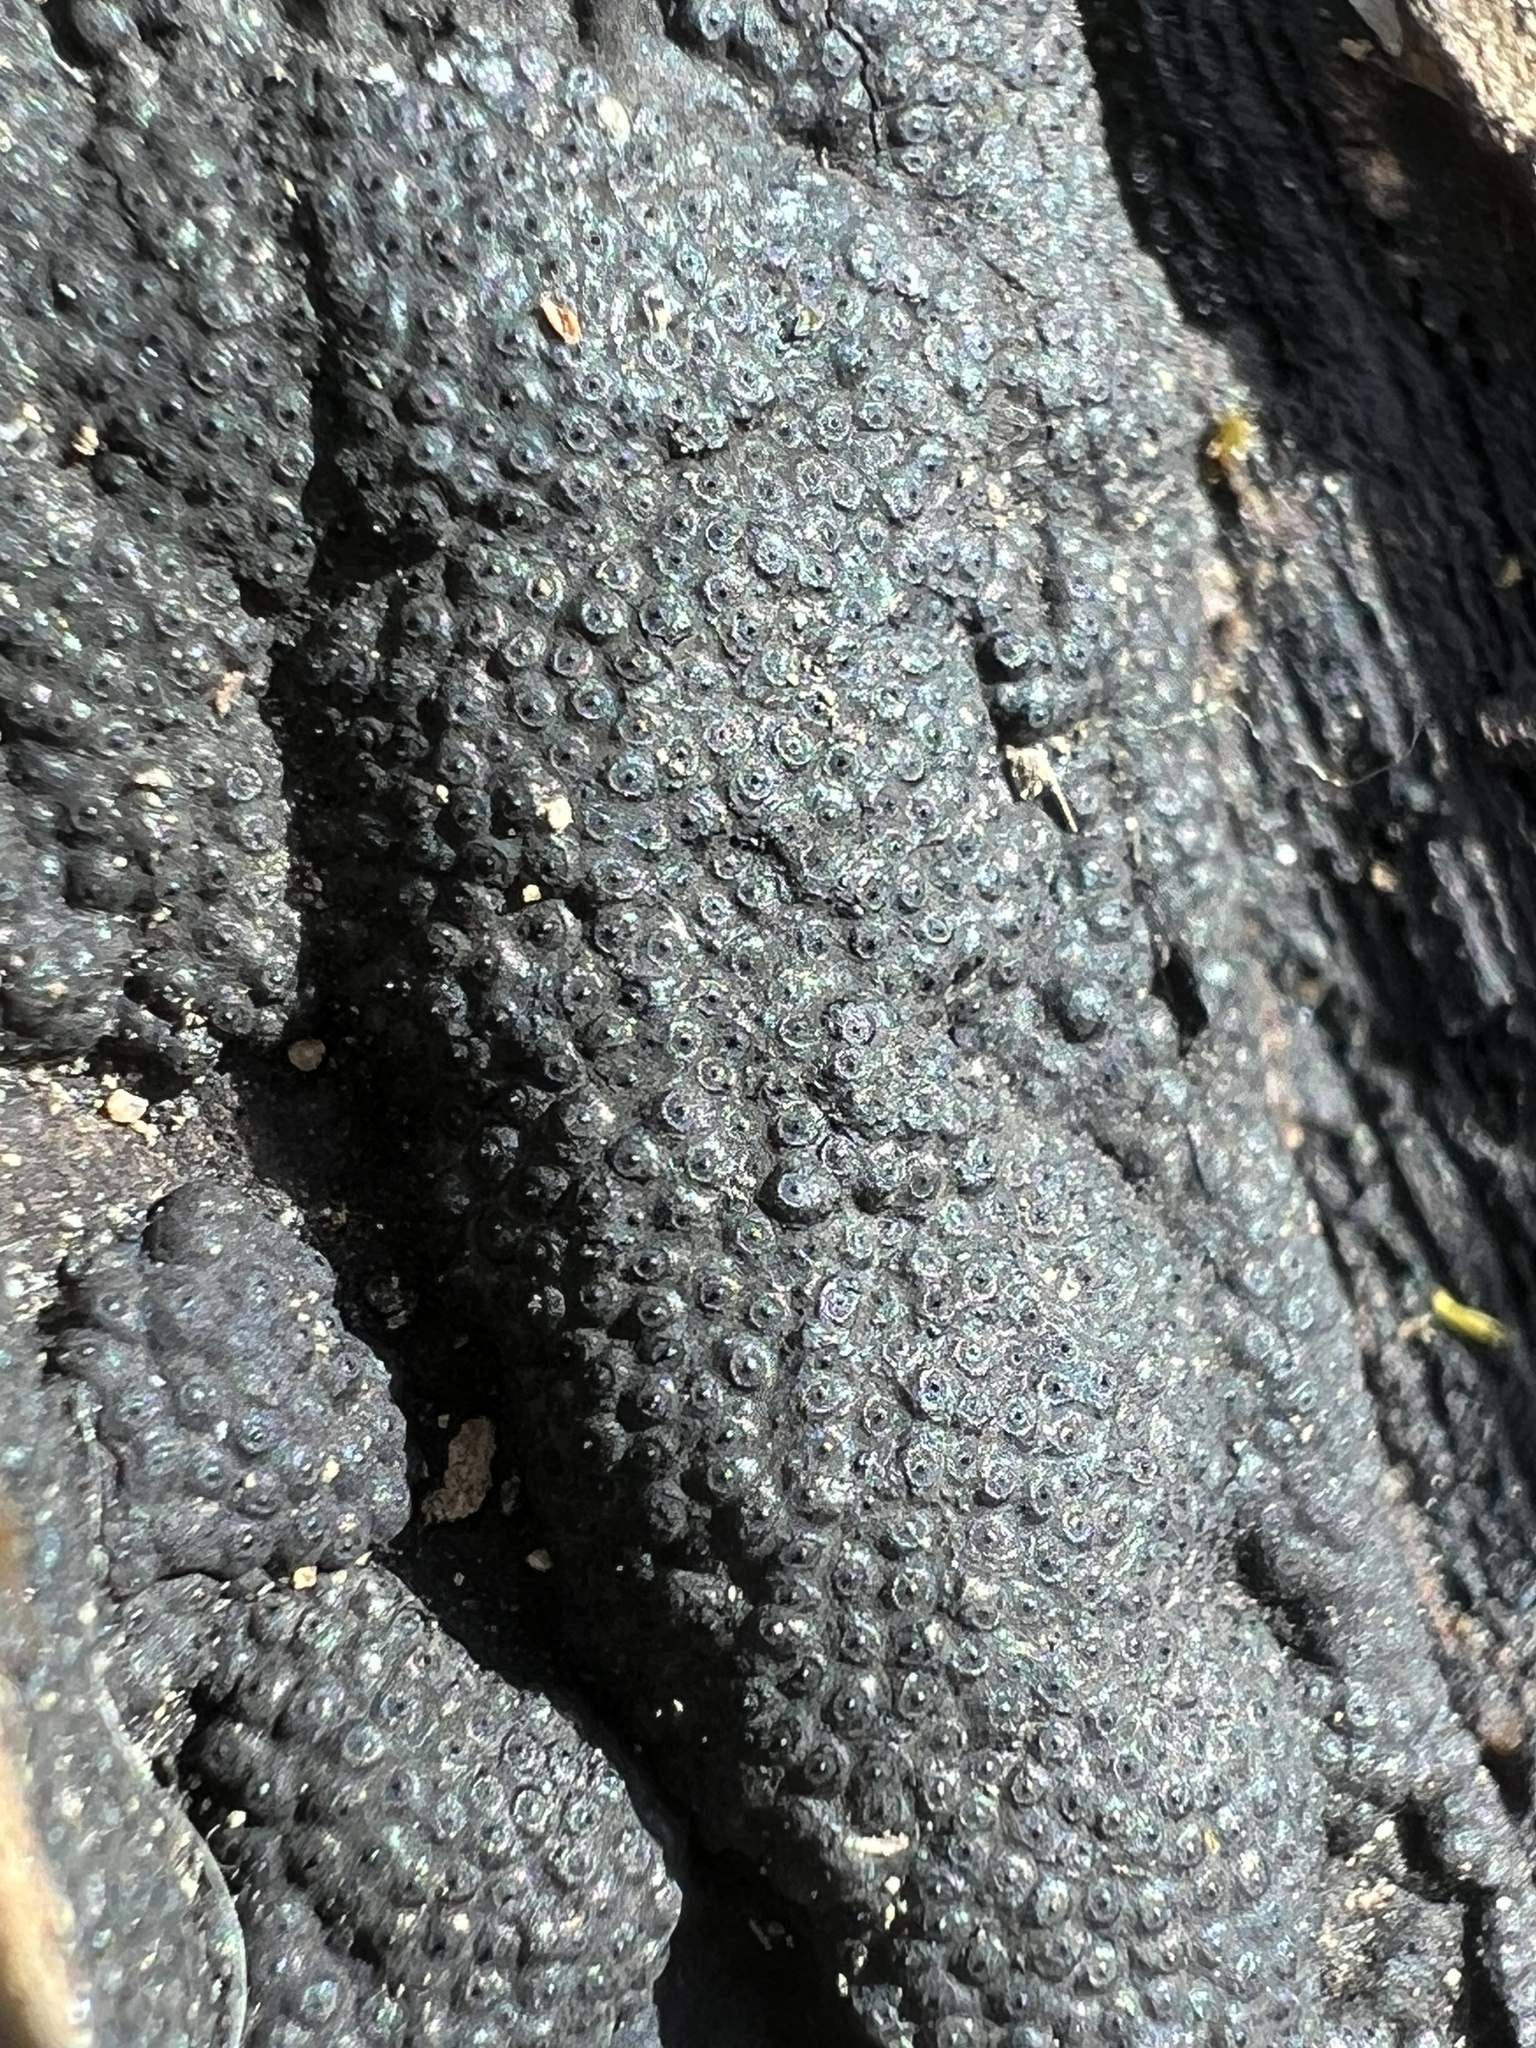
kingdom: Fungi
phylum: Ascomycota
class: Sordariomycetes
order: Xylariales
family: Hypoxylaceae
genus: Annulohypoxylon
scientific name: Annulohypoxylon annulatum
